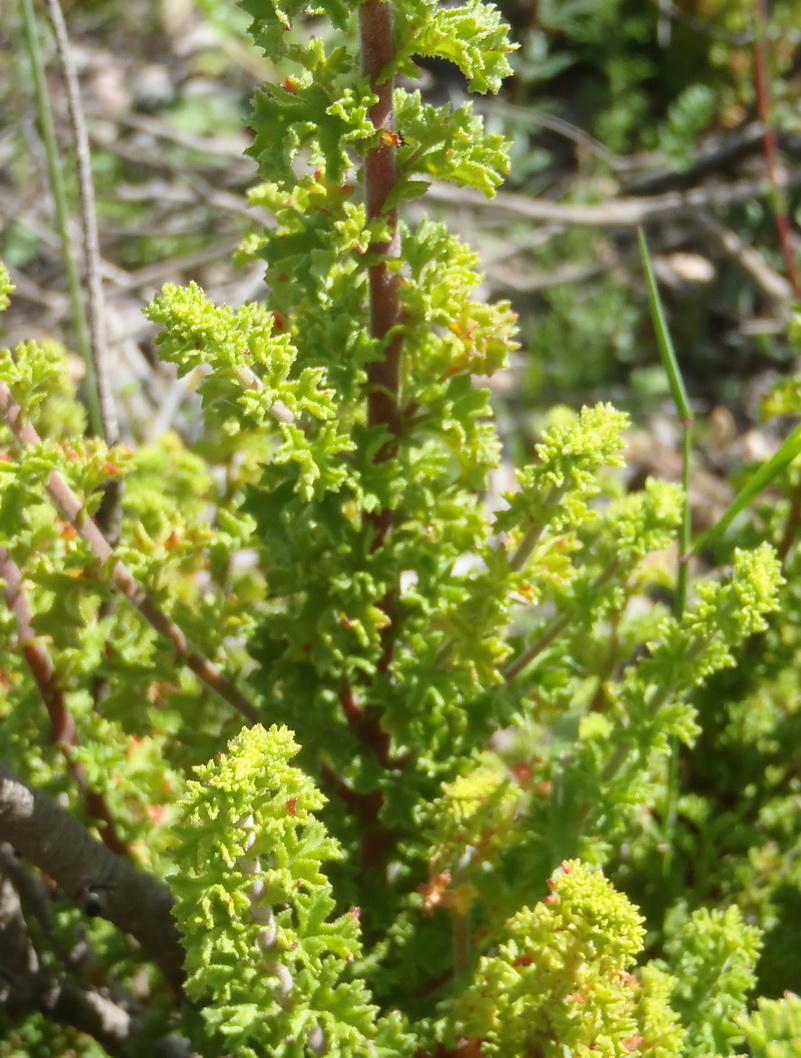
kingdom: Plantae
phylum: Tracheophyta
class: Magnoliopsida
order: Geraniales
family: Geraniaceae
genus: Pelargonium
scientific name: Pelargonium crispum
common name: Crisped-leaf pelargonium
